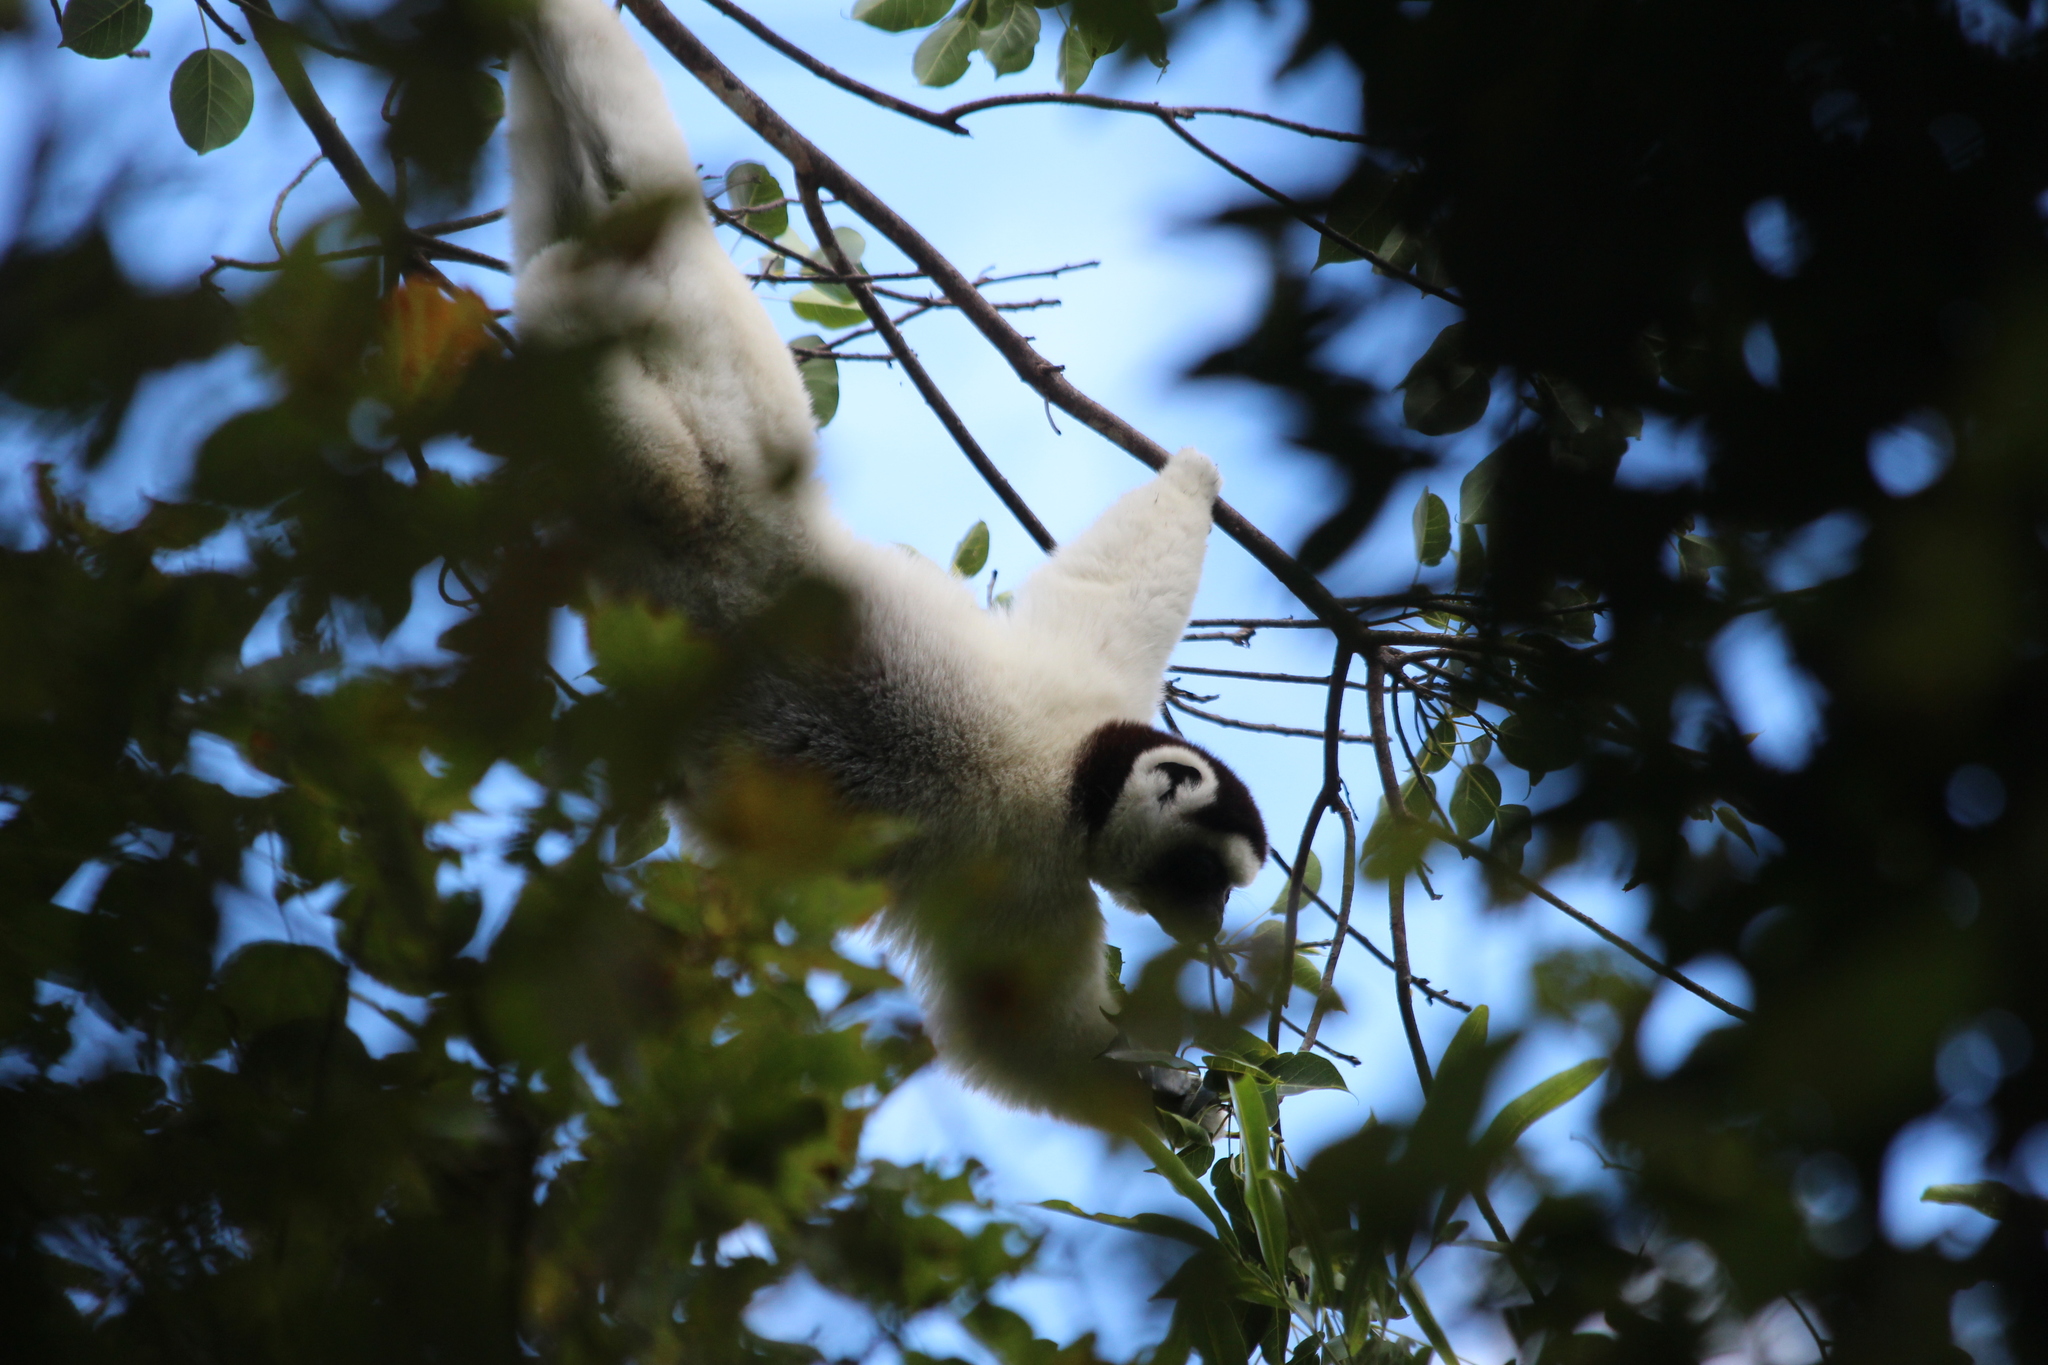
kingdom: Animalia
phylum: Chordata
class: Mammalia
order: Primates
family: Indriidae
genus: Propithecus
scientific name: Propithecus verreauxi
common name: Verreaux's sifaka
